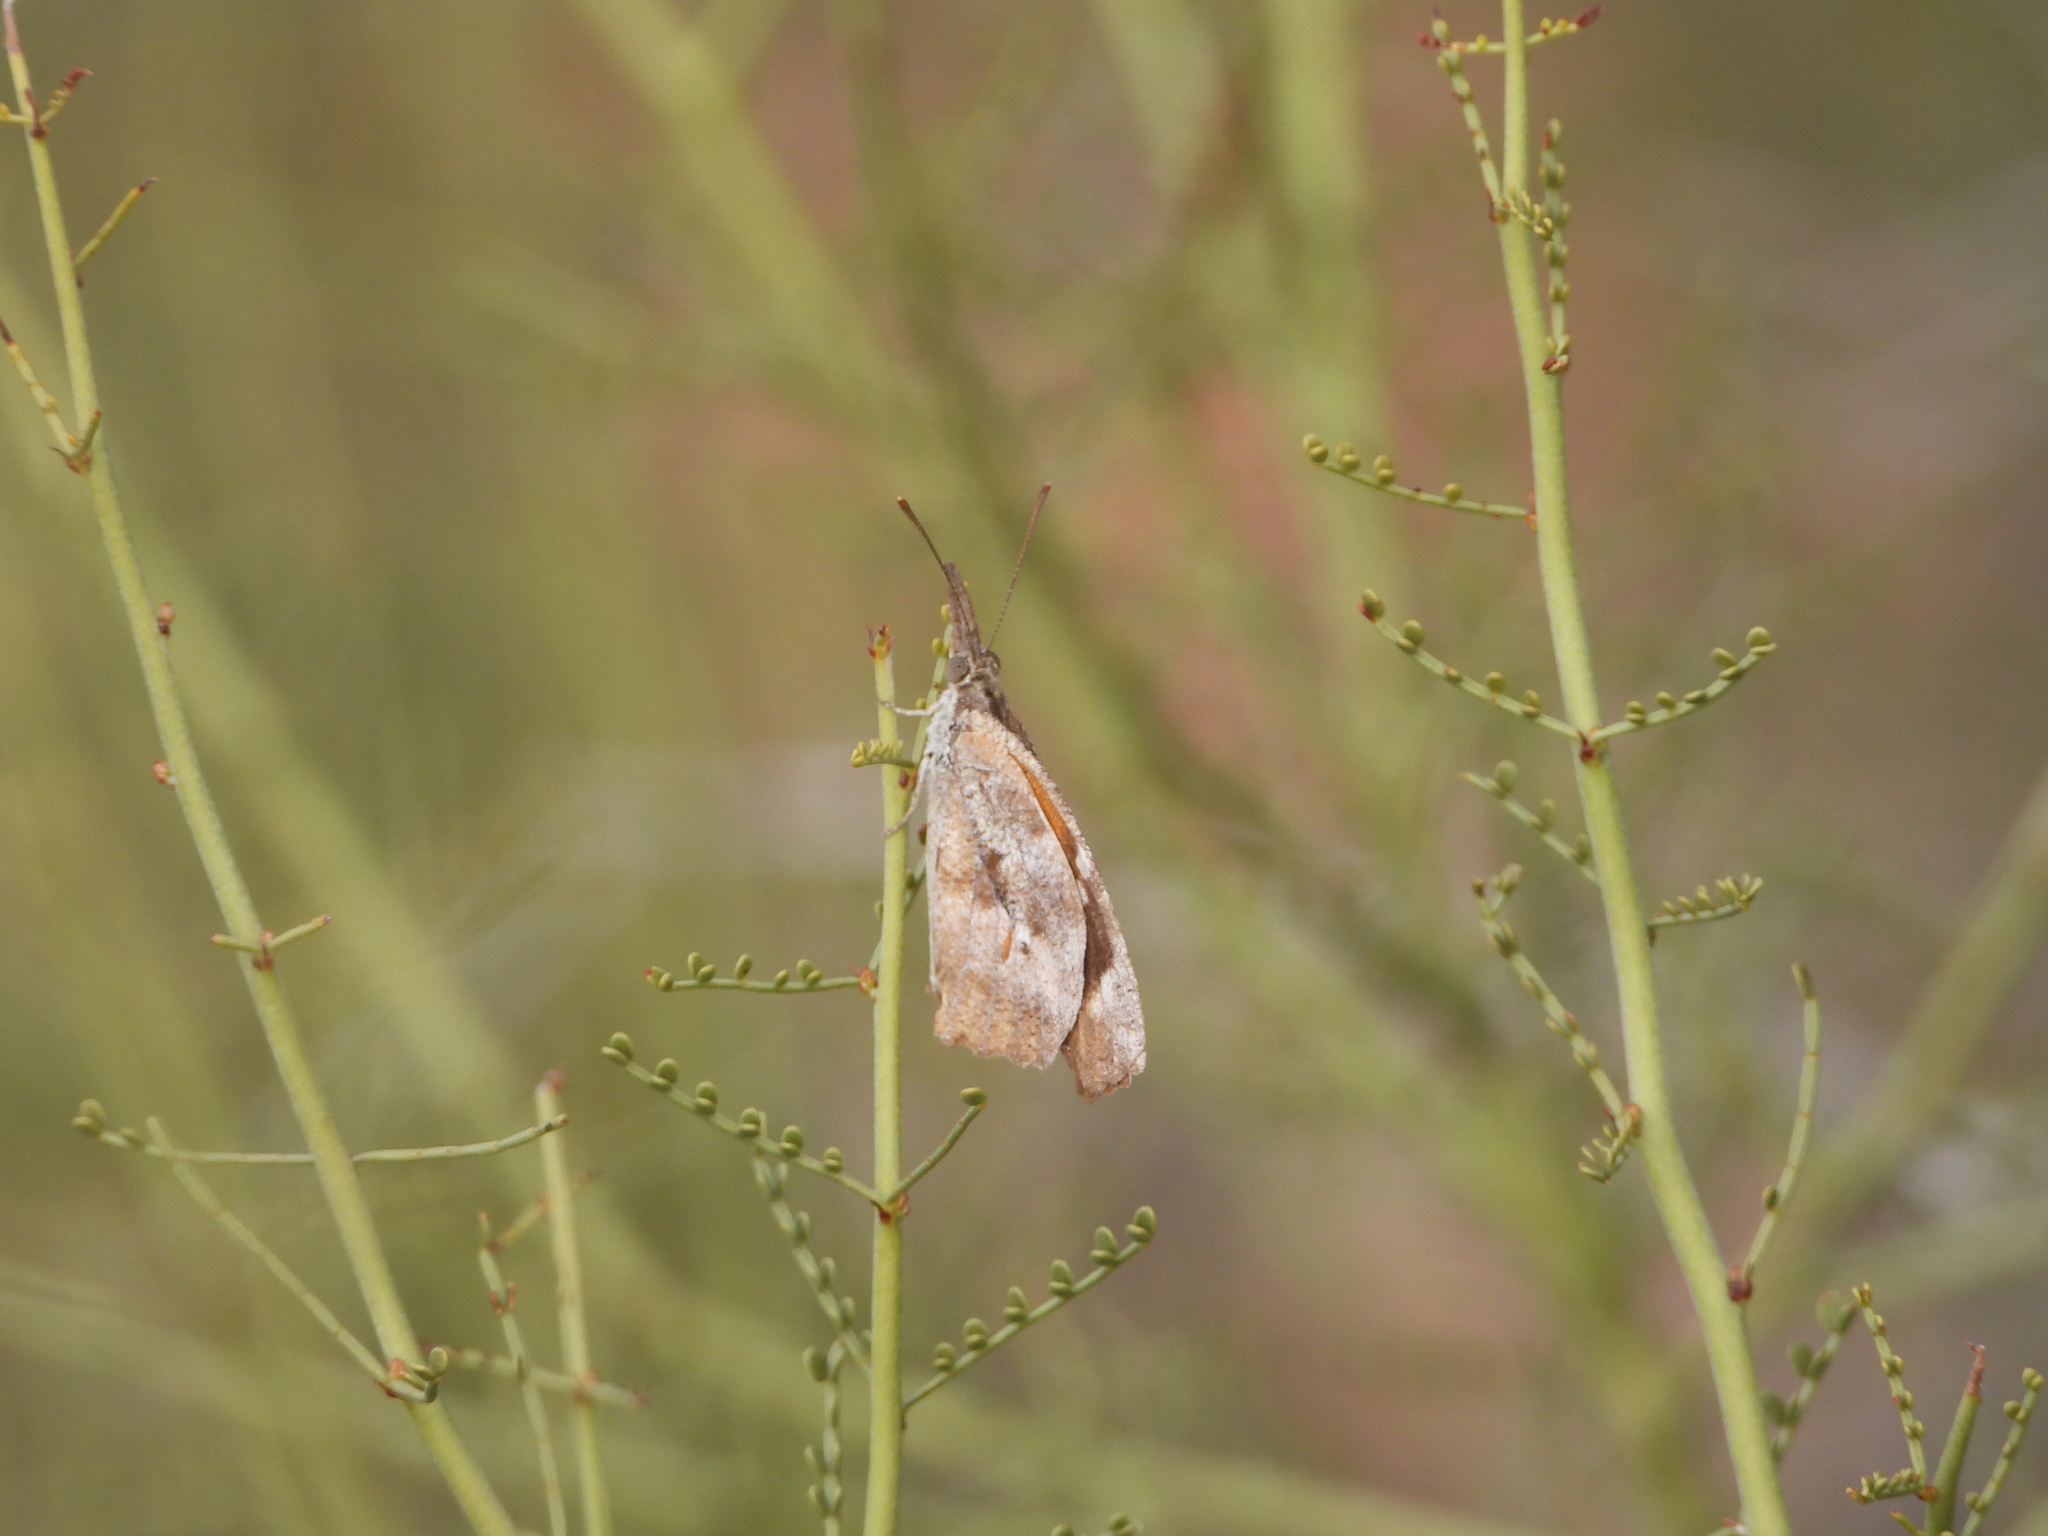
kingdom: Animalia
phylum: Arthropoda
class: Insecta
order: Lepidoptera
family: Nymphalidae
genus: Libytheana
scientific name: Libytheana carinenta
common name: American snout
